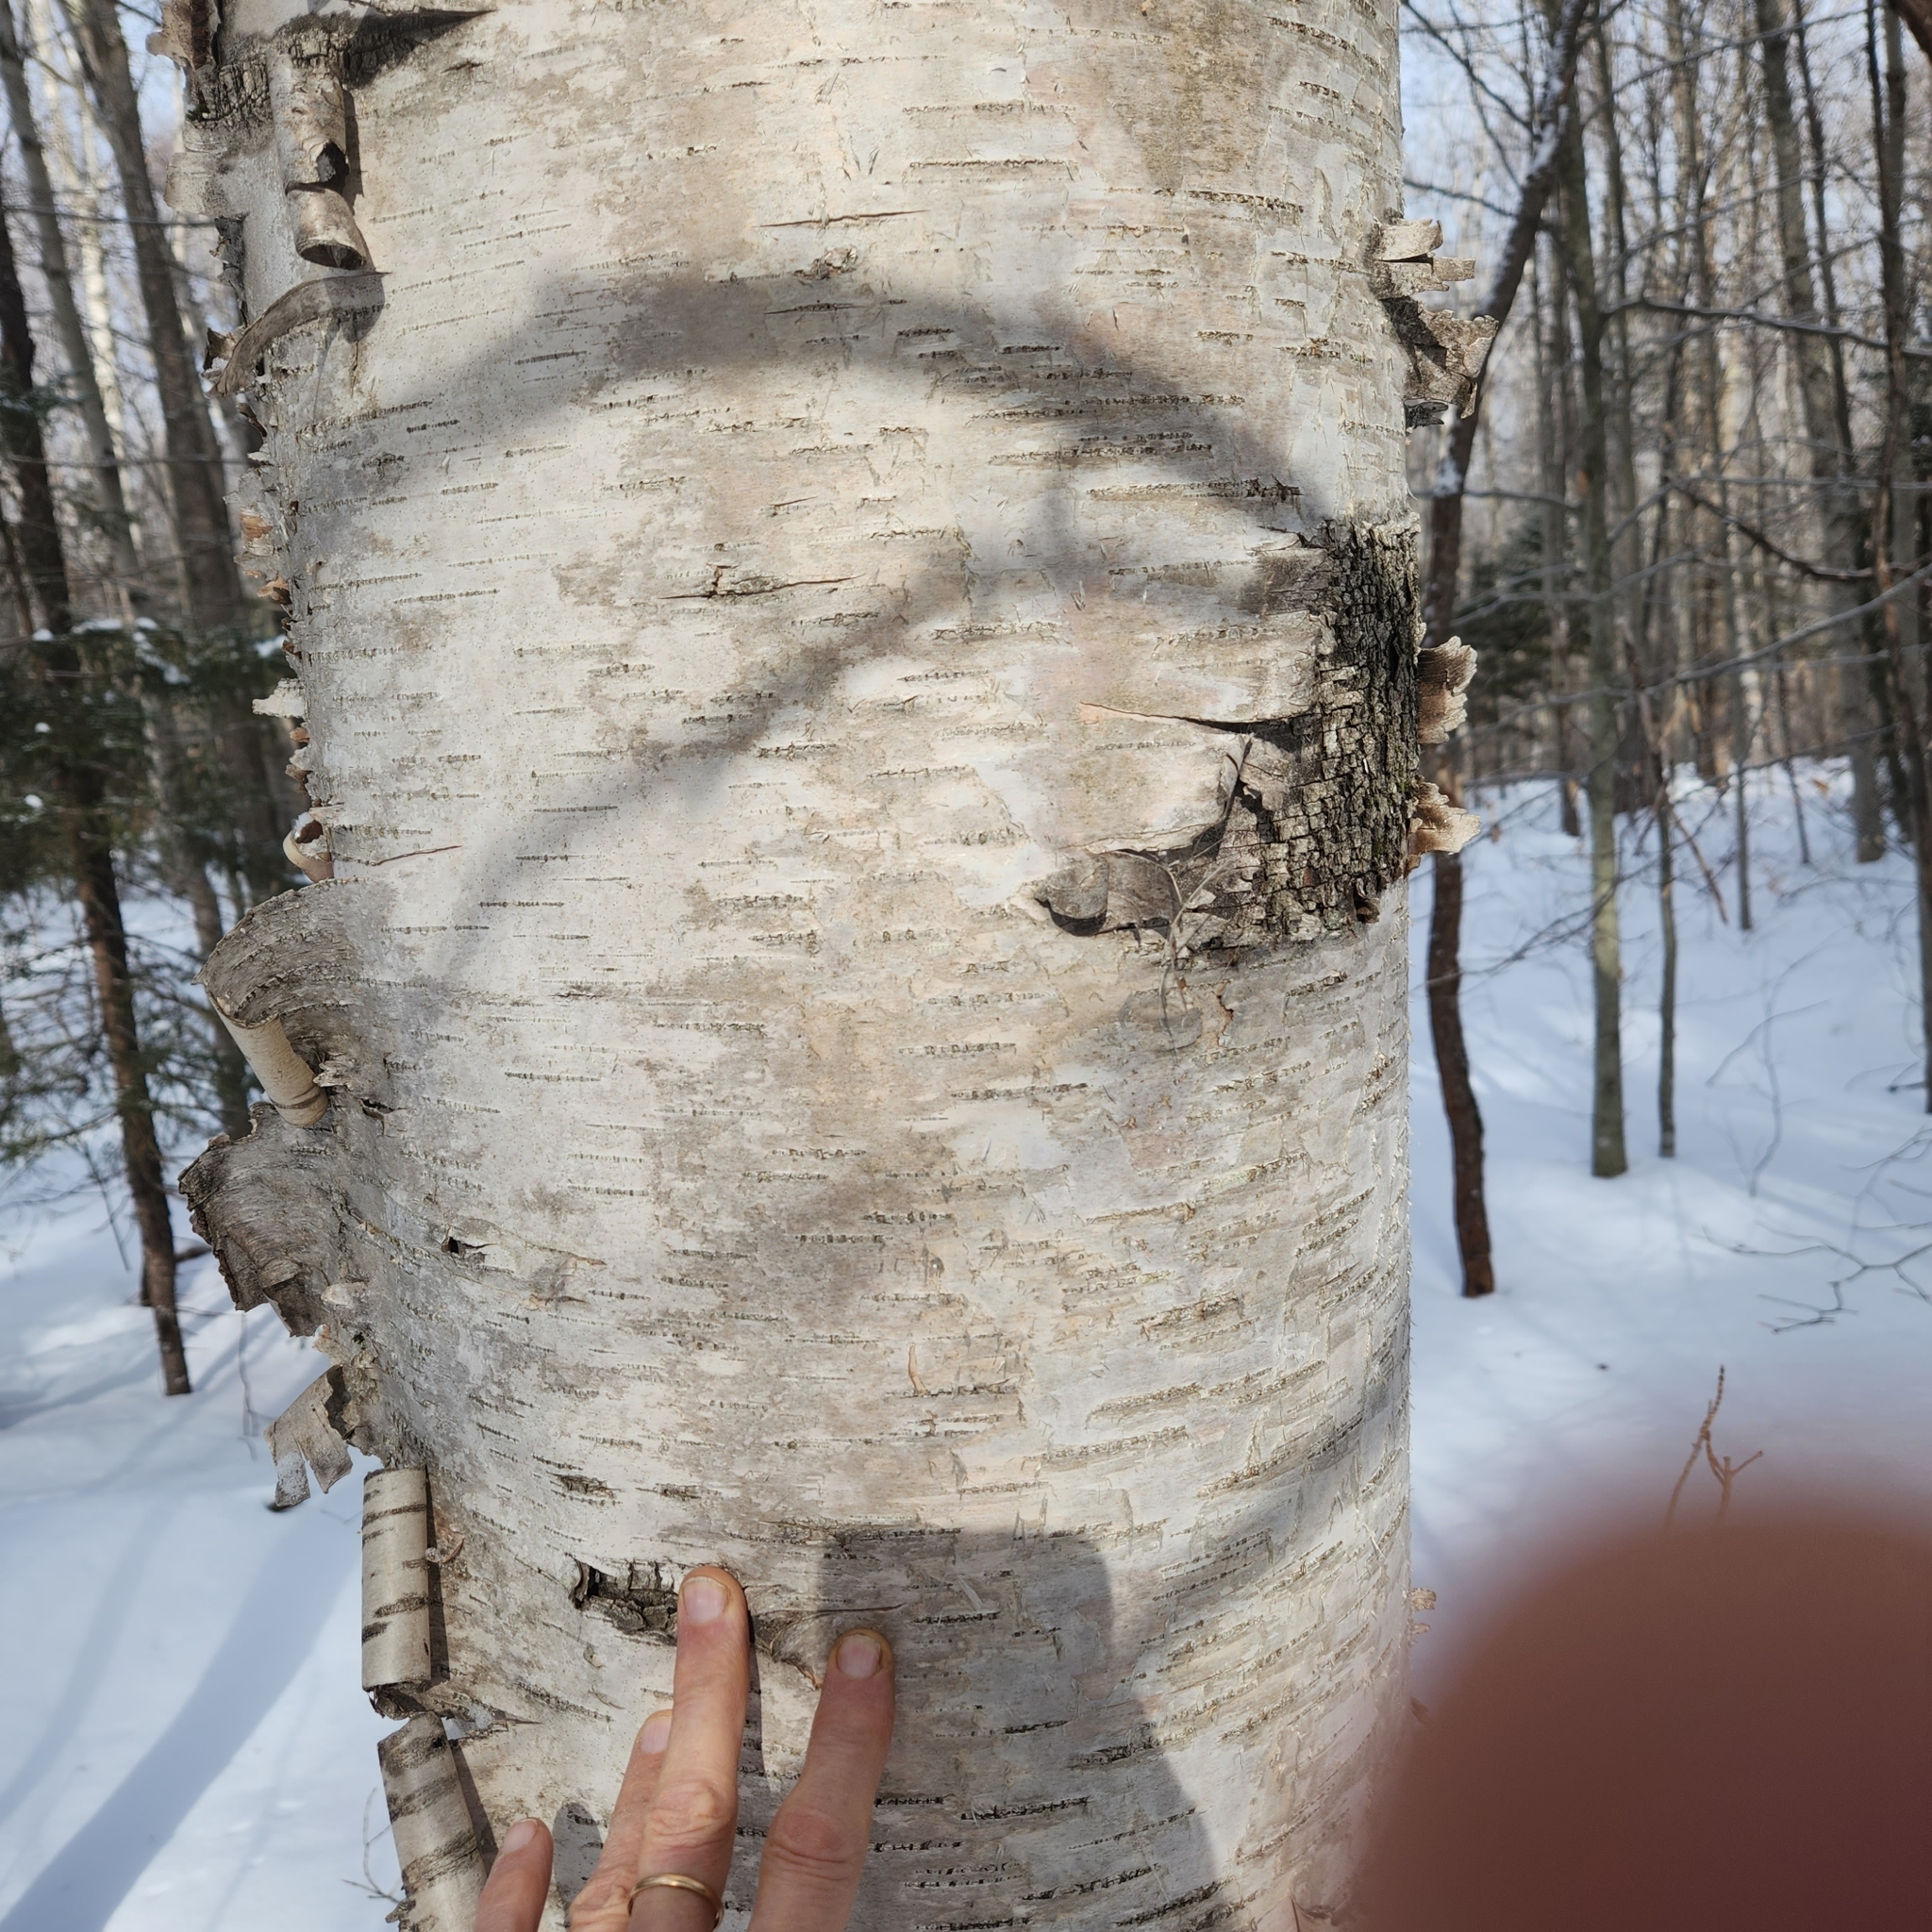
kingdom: Plantae
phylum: Tracheophyta
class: Magnoliopsida
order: Fagales
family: Betulaceae
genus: Betula
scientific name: Betula papyrifera
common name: Paper birch
